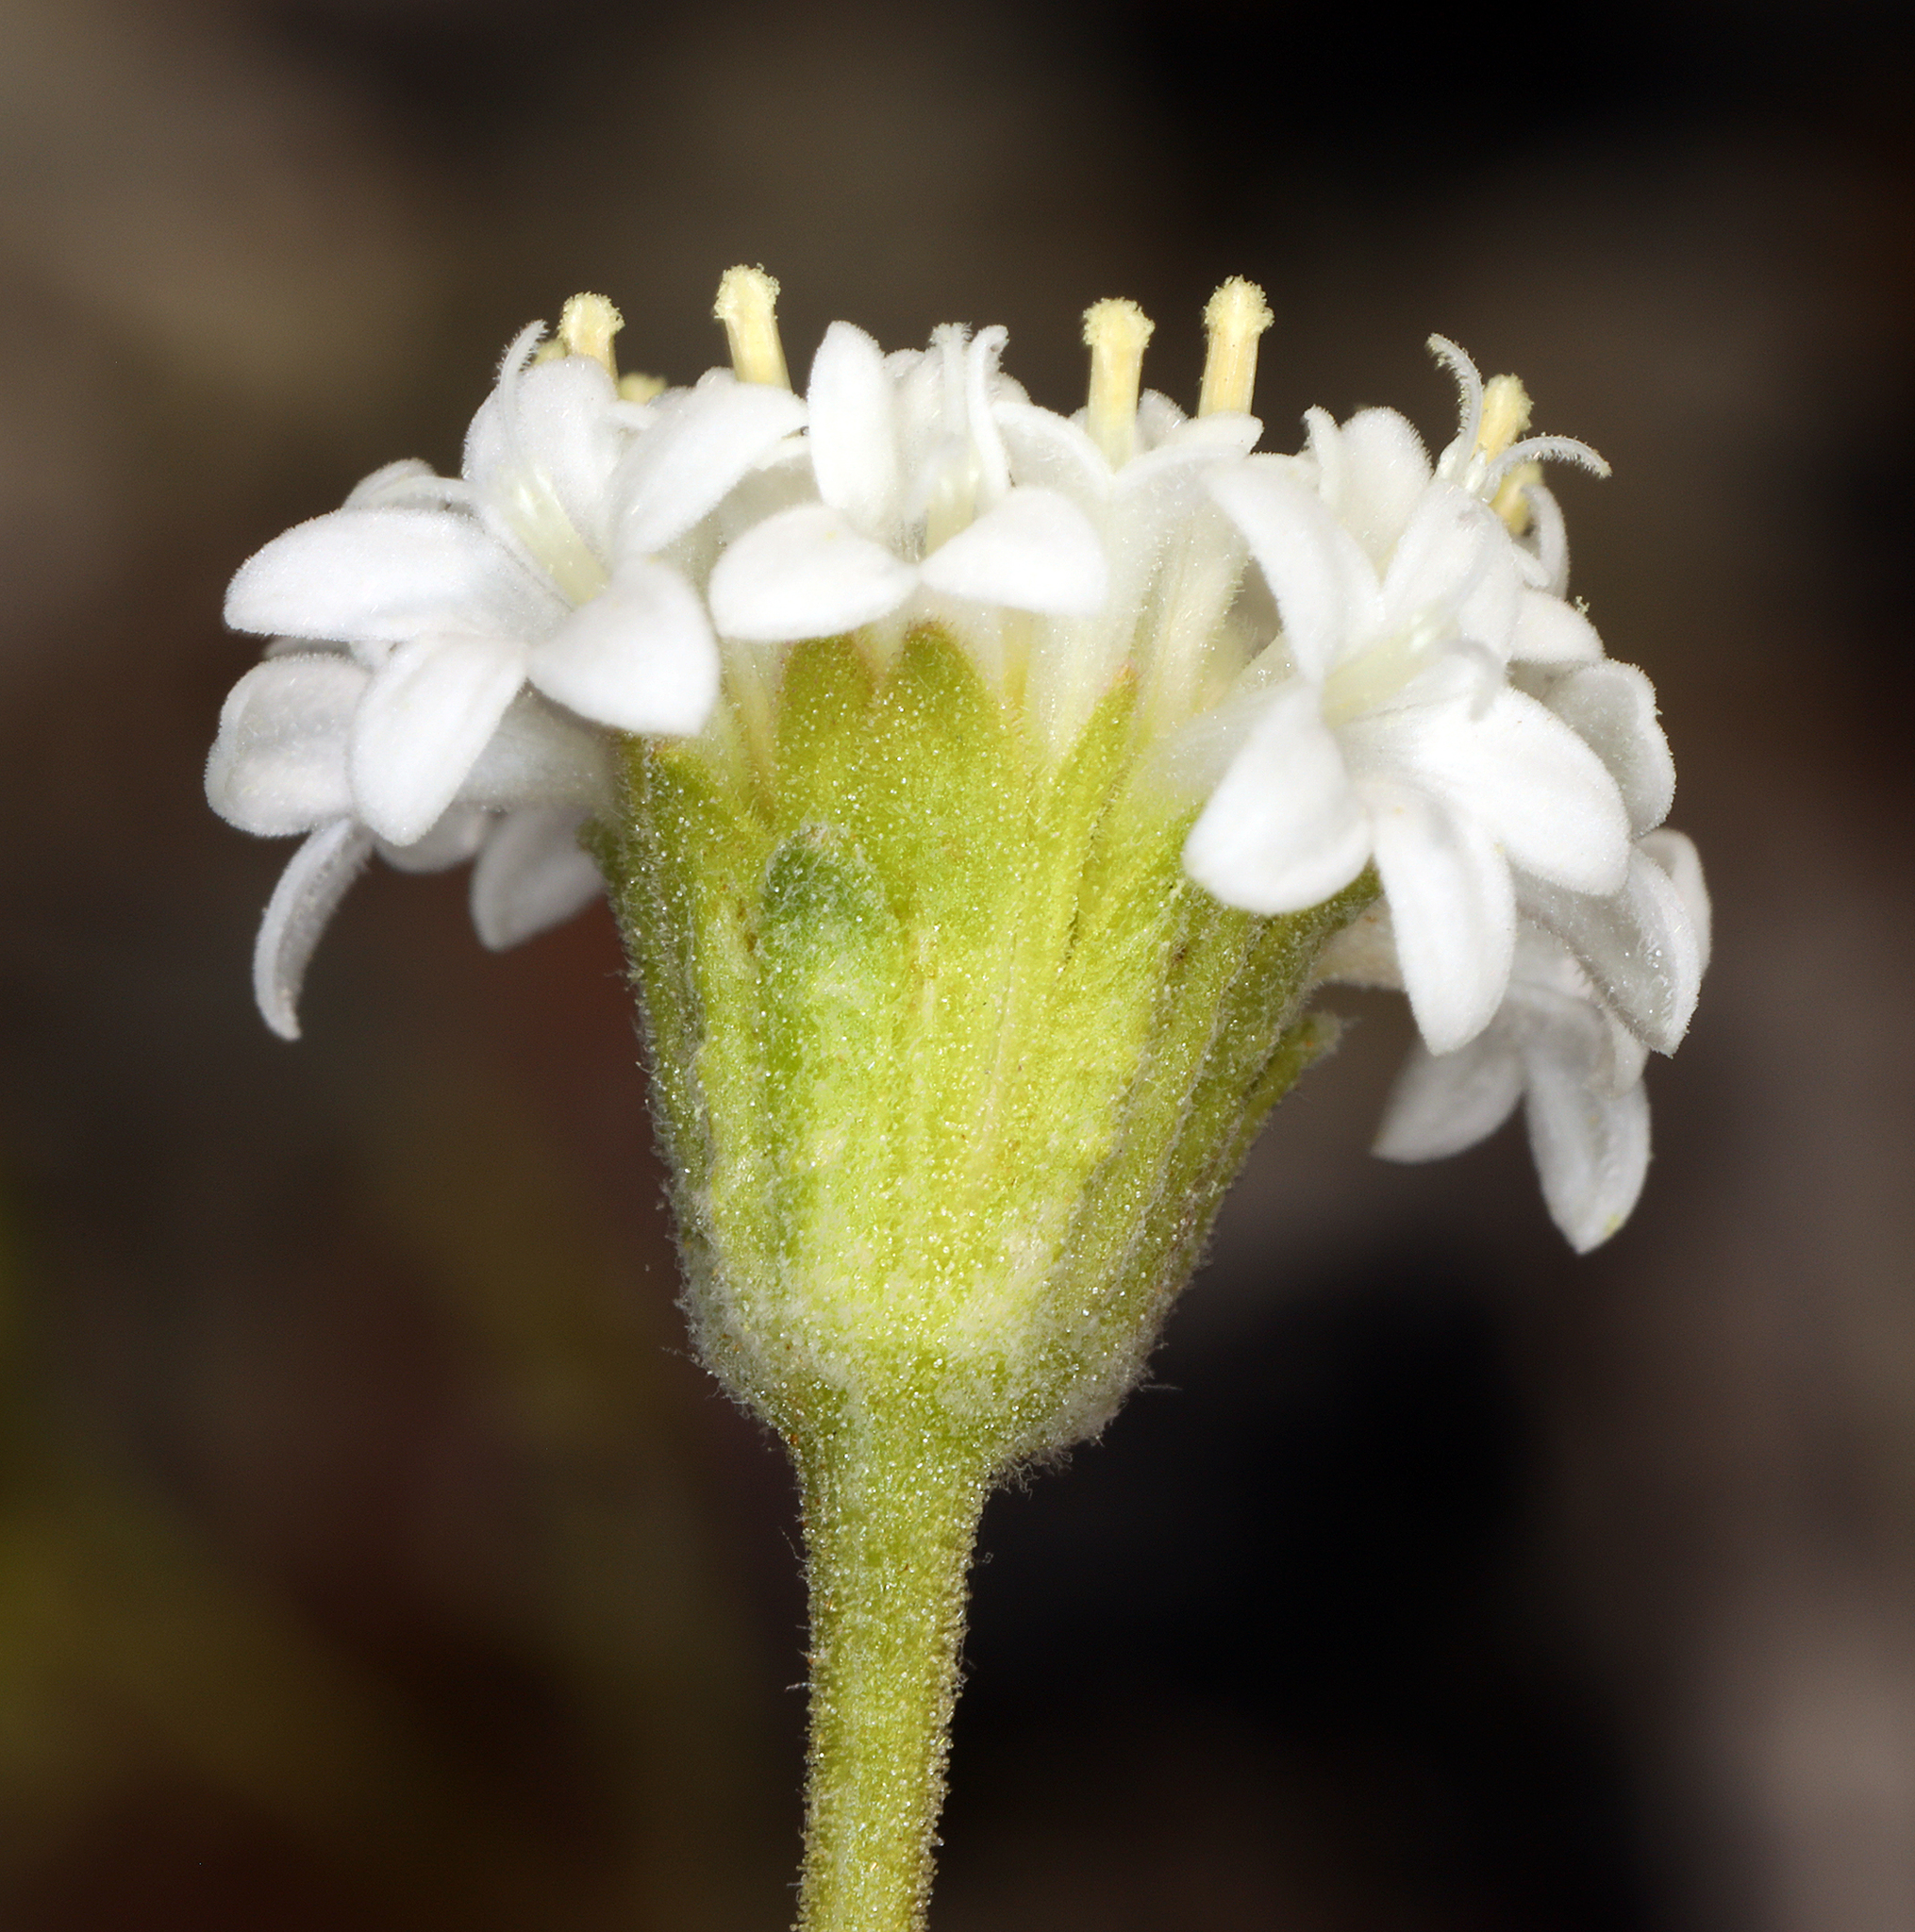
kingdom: Plantae
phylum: Tracheophyta
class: Magnoliopsida
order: Asterales
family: Asteraceae
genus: Chaenactis
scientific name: Chaenactis stevioides
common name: Desert pincushion
